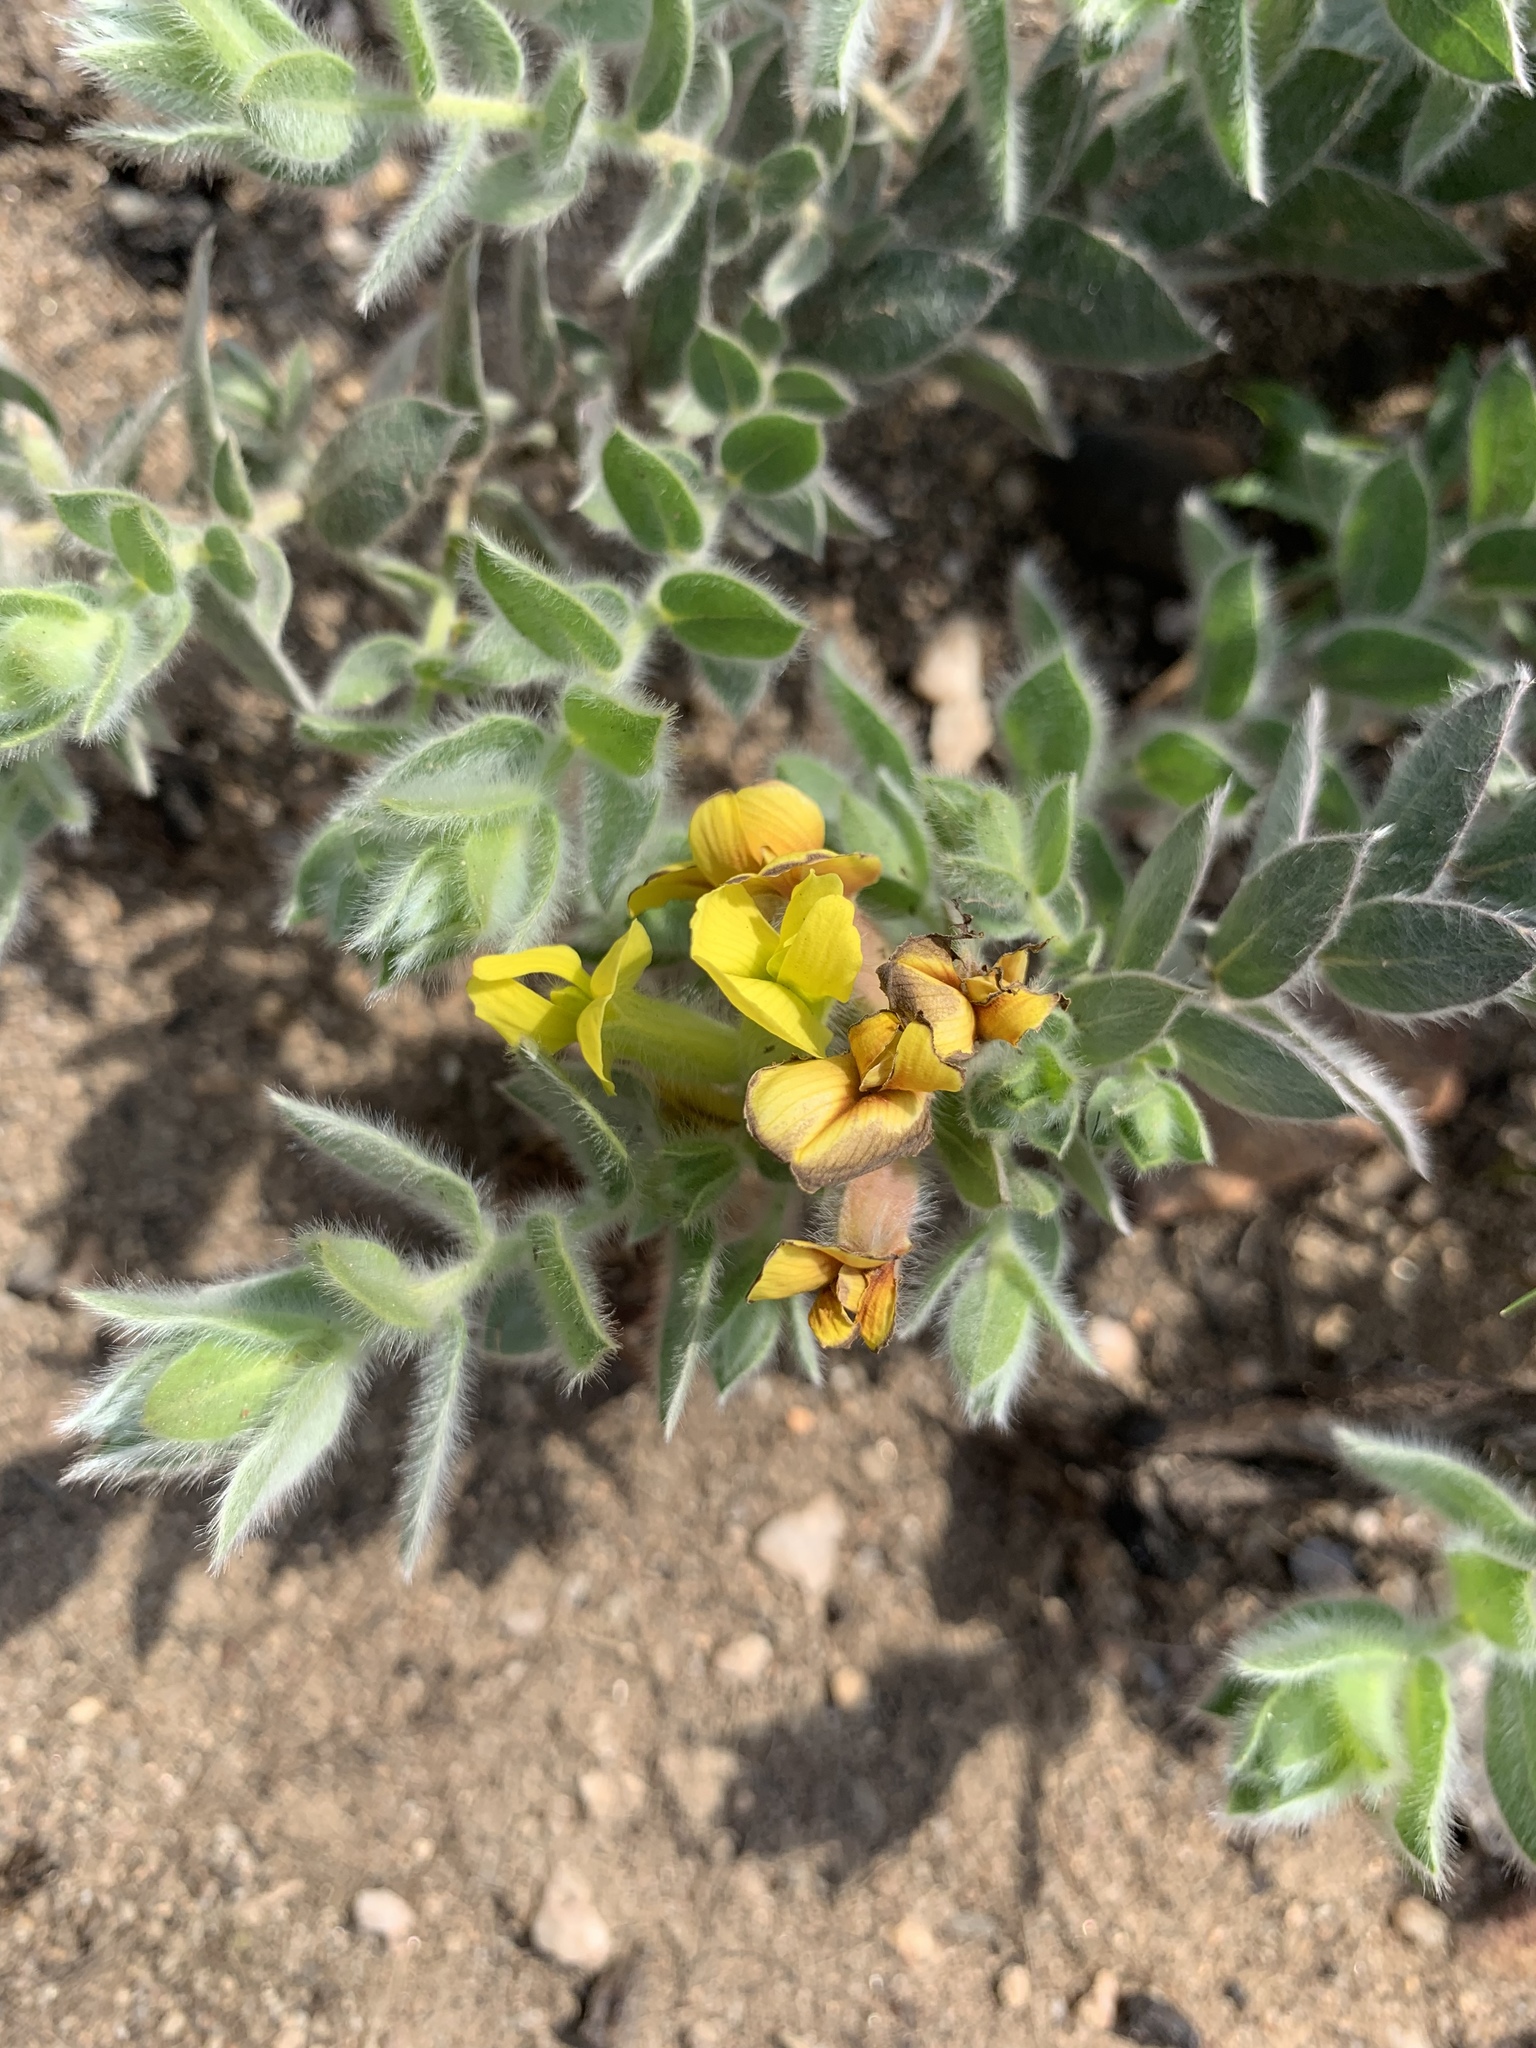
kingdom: Plantae
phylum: Tracheophyta
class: Magnoliopsida
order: Fabales
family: Fabaceae
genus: Xiphotheca
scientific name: Xiphotheca reflexa
